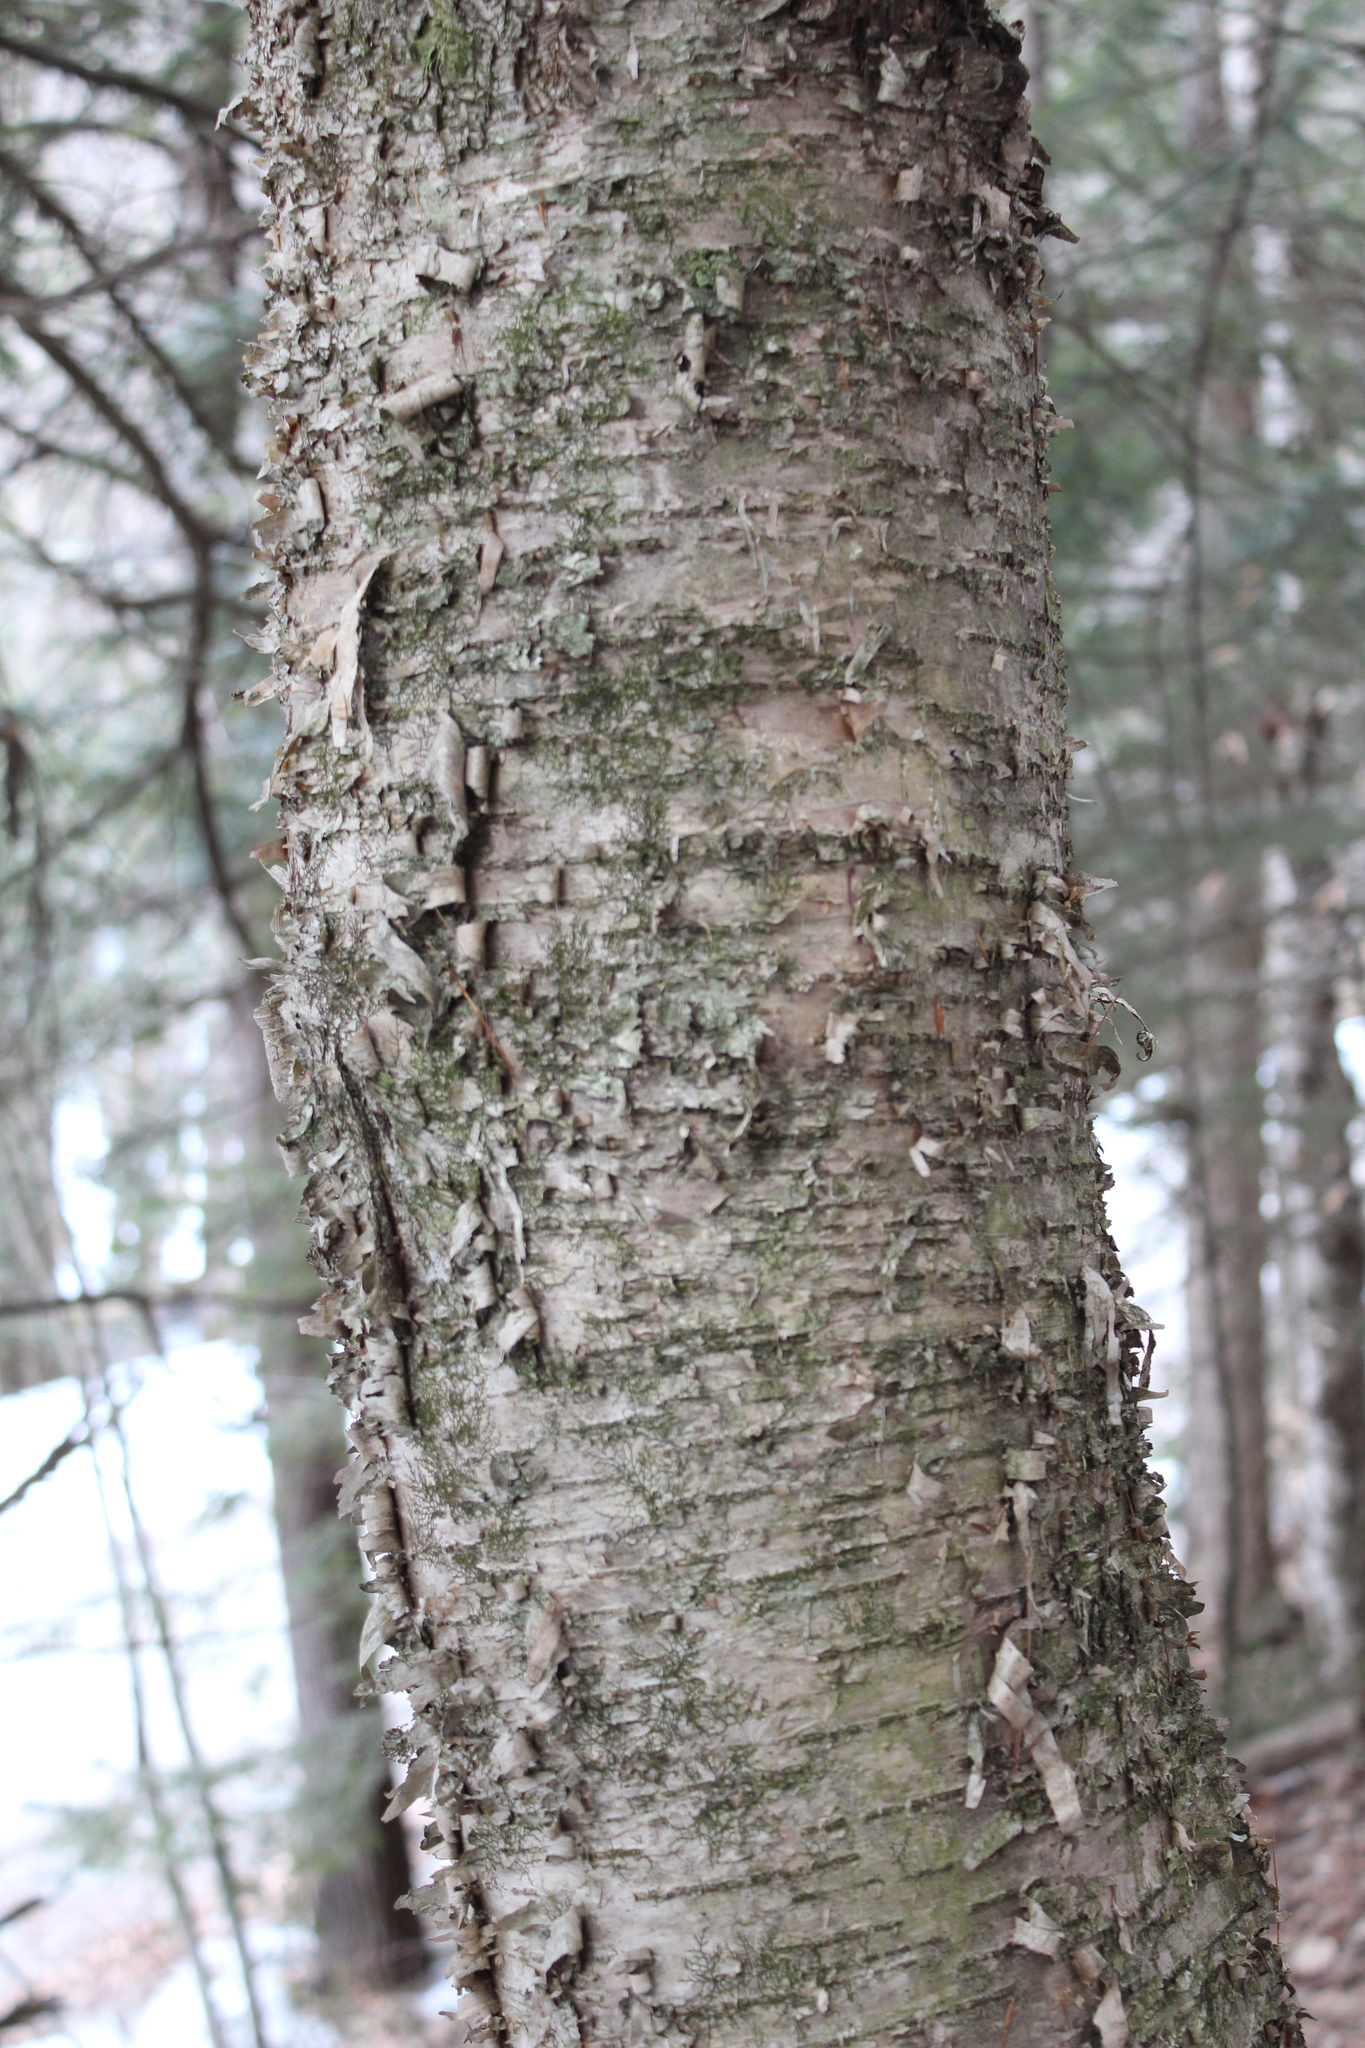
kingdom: Plantae
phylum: Tracheophyta
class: Magnoliopsida
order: Fagales
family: Betulaceae
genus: Betula
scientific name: Betula alleghaniensis
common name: Yellow birch
